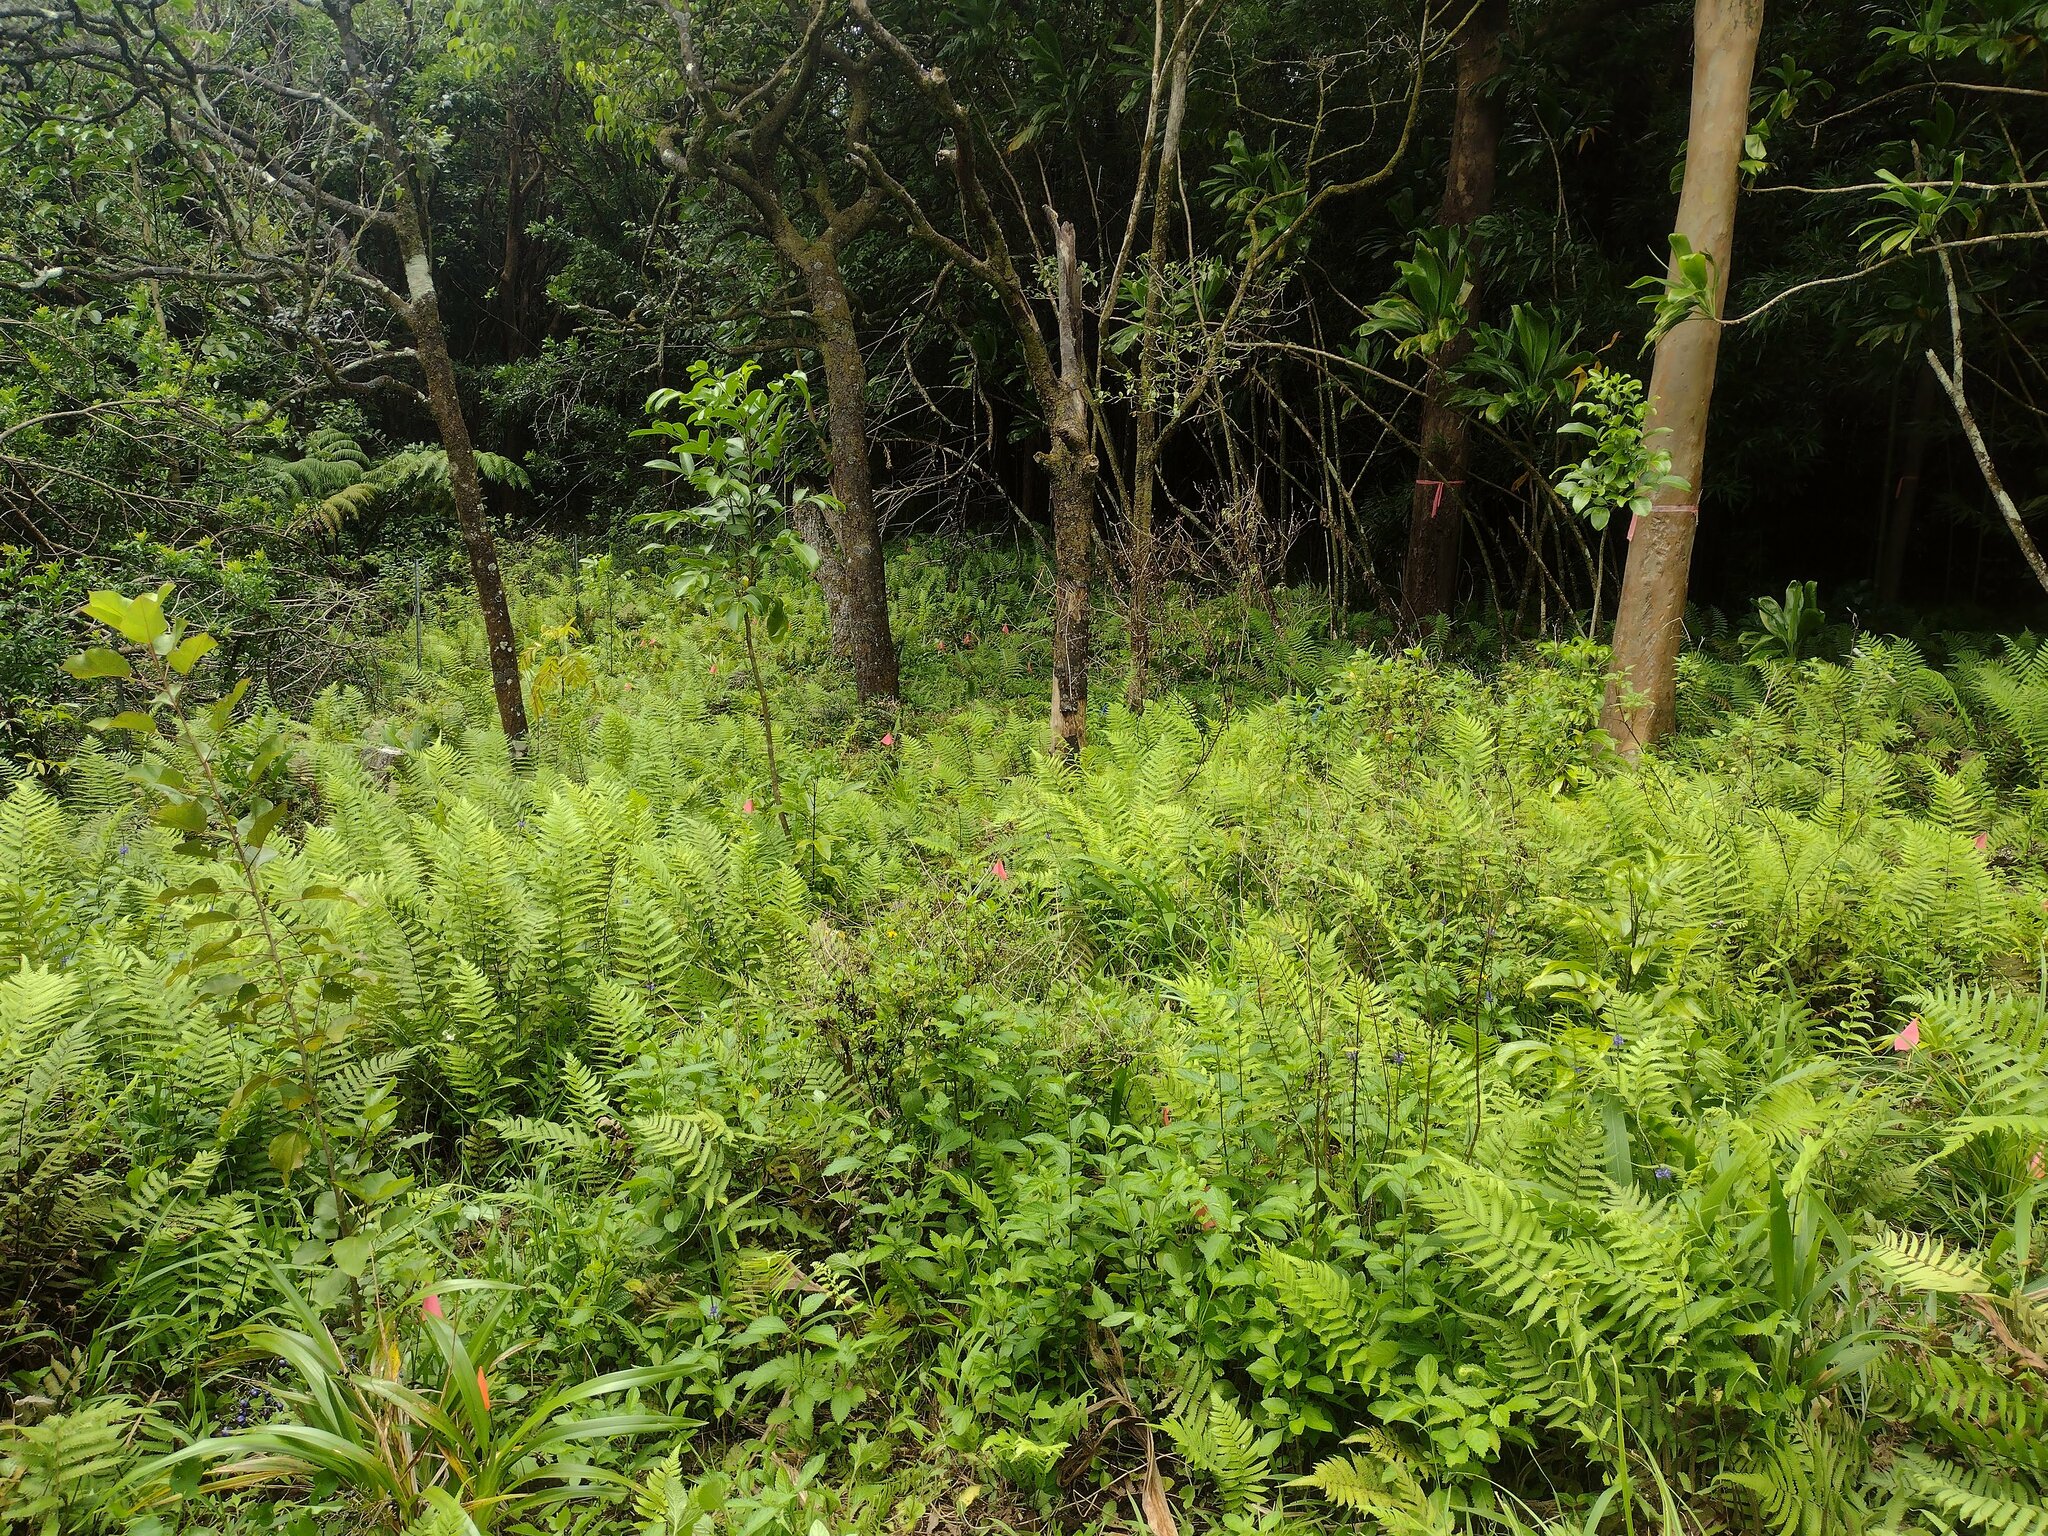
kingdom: Plantae
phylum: Tracheophyta
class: Polypodiopsida
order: Polypodiales
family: Thelypteridaceae
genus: Christella
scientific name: Christella parasitica
